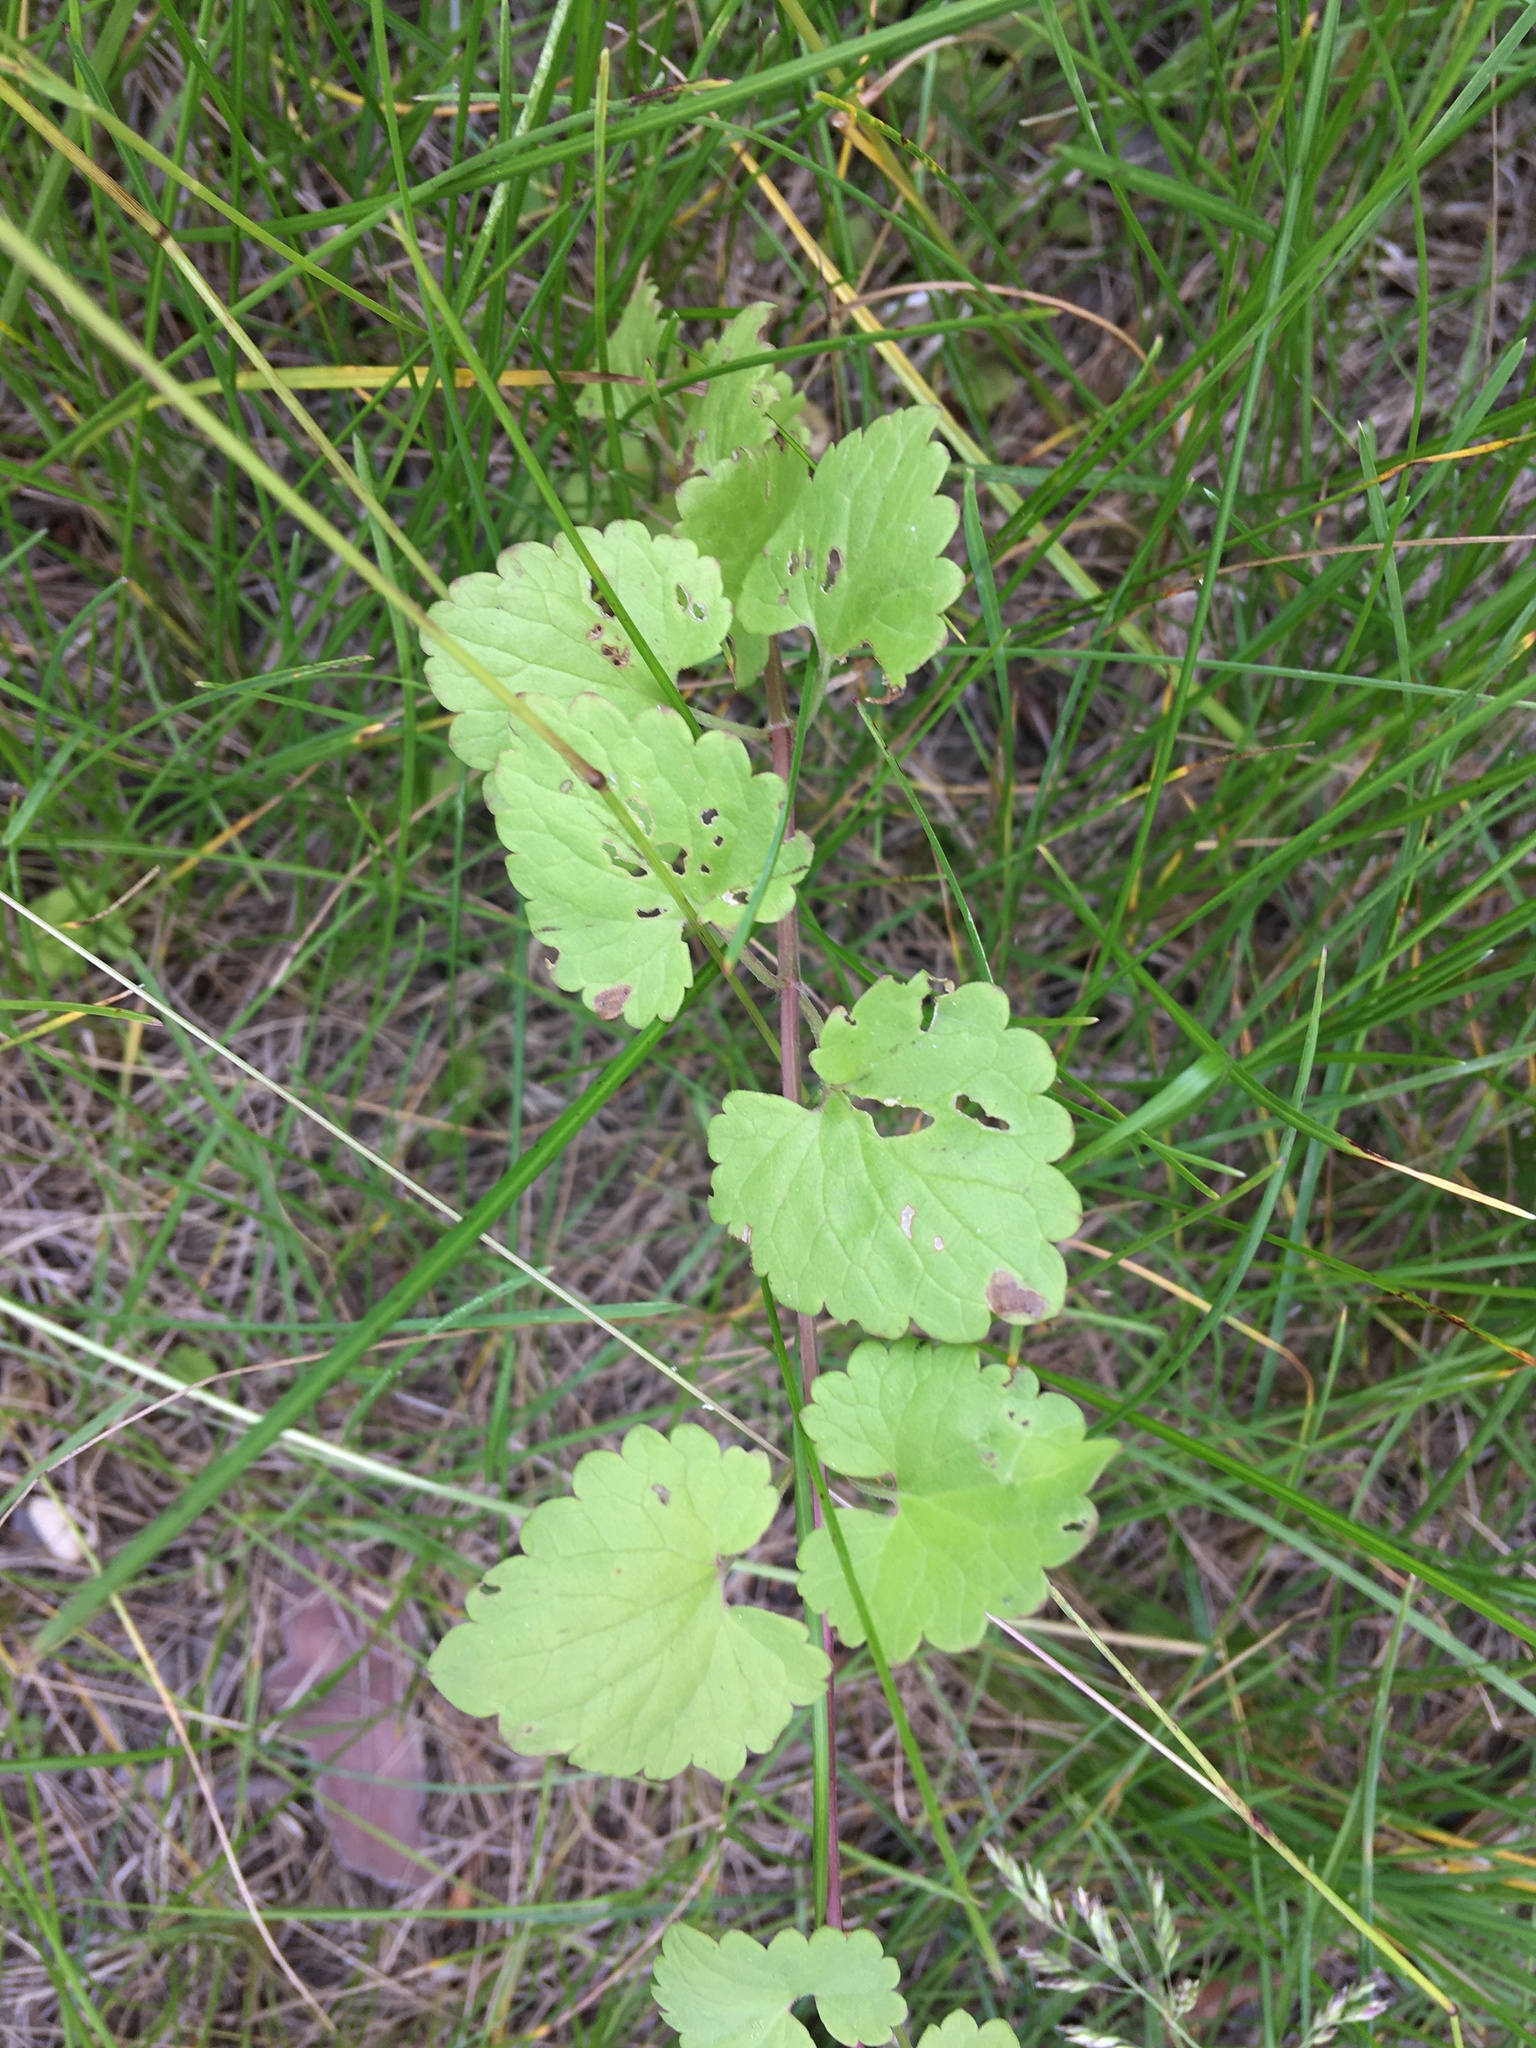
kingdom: Plantae
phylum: Tracheophyta
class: Magnoliopsida
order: Lamiales
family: Lamiaceae
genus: Glechoma
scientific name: Glechoma hederacea
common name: Ground ivy
